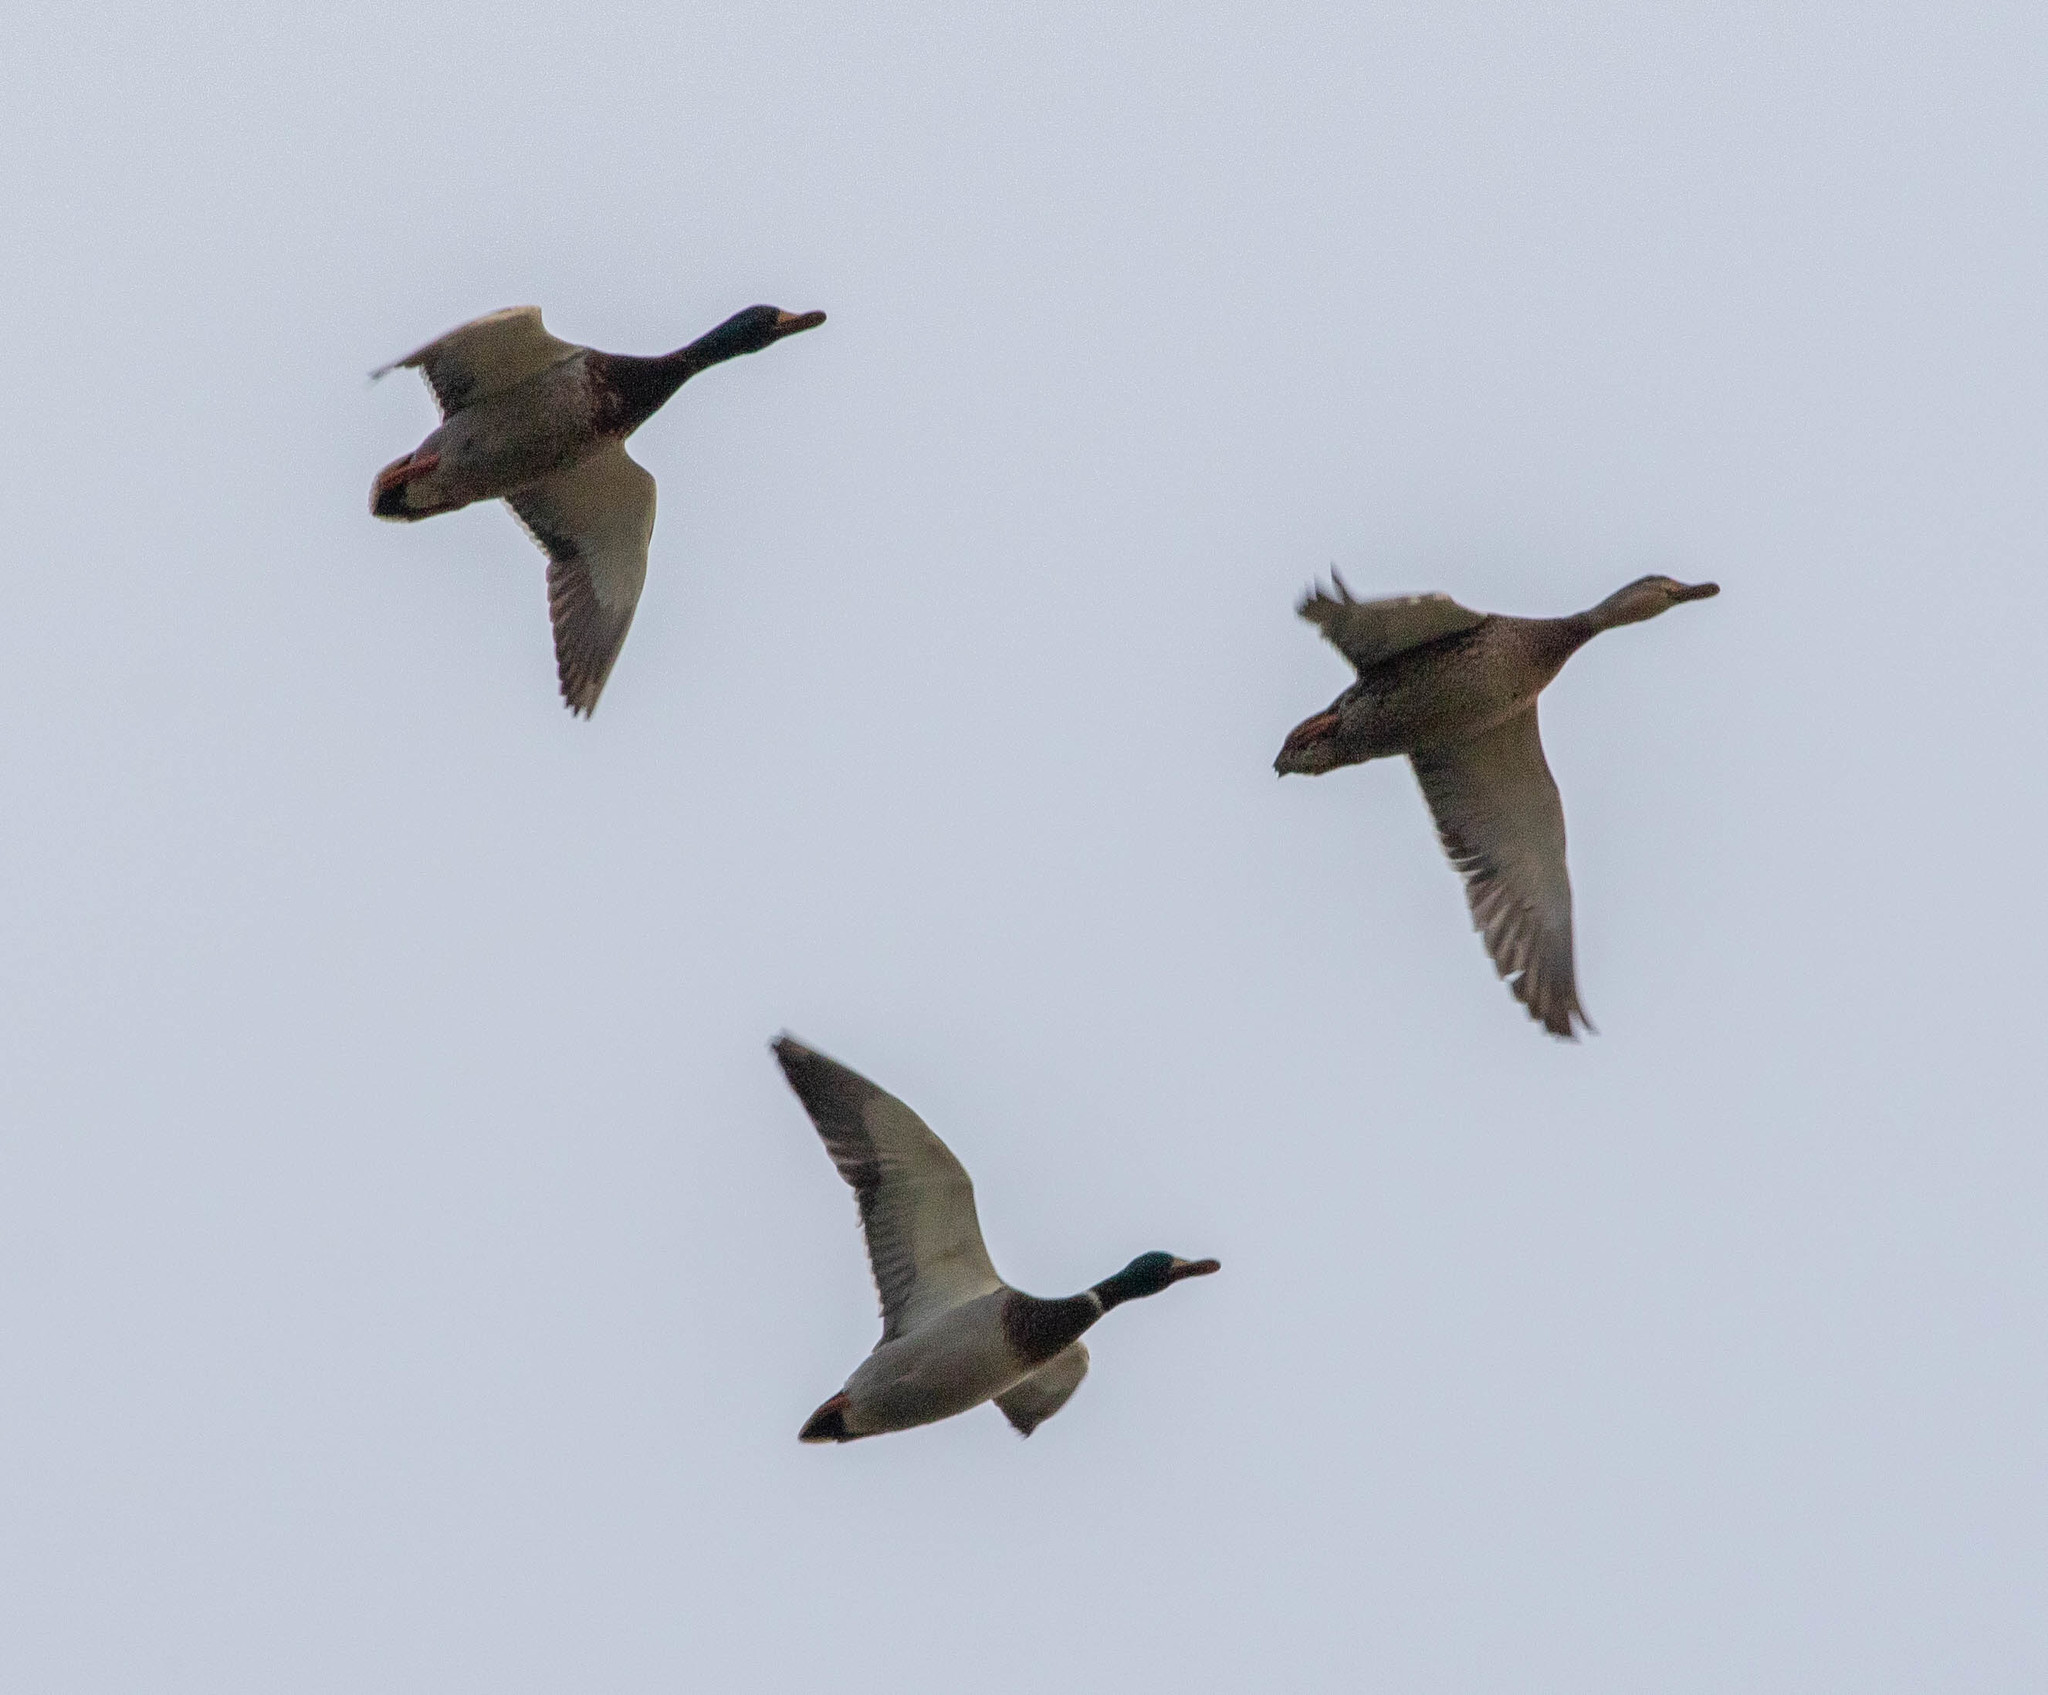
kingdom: Animalia
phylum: Chordata
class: Aves
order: Anseriformes
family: Anatidae
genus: Anas
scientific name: Anas platyrhynchos
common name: Mallard
